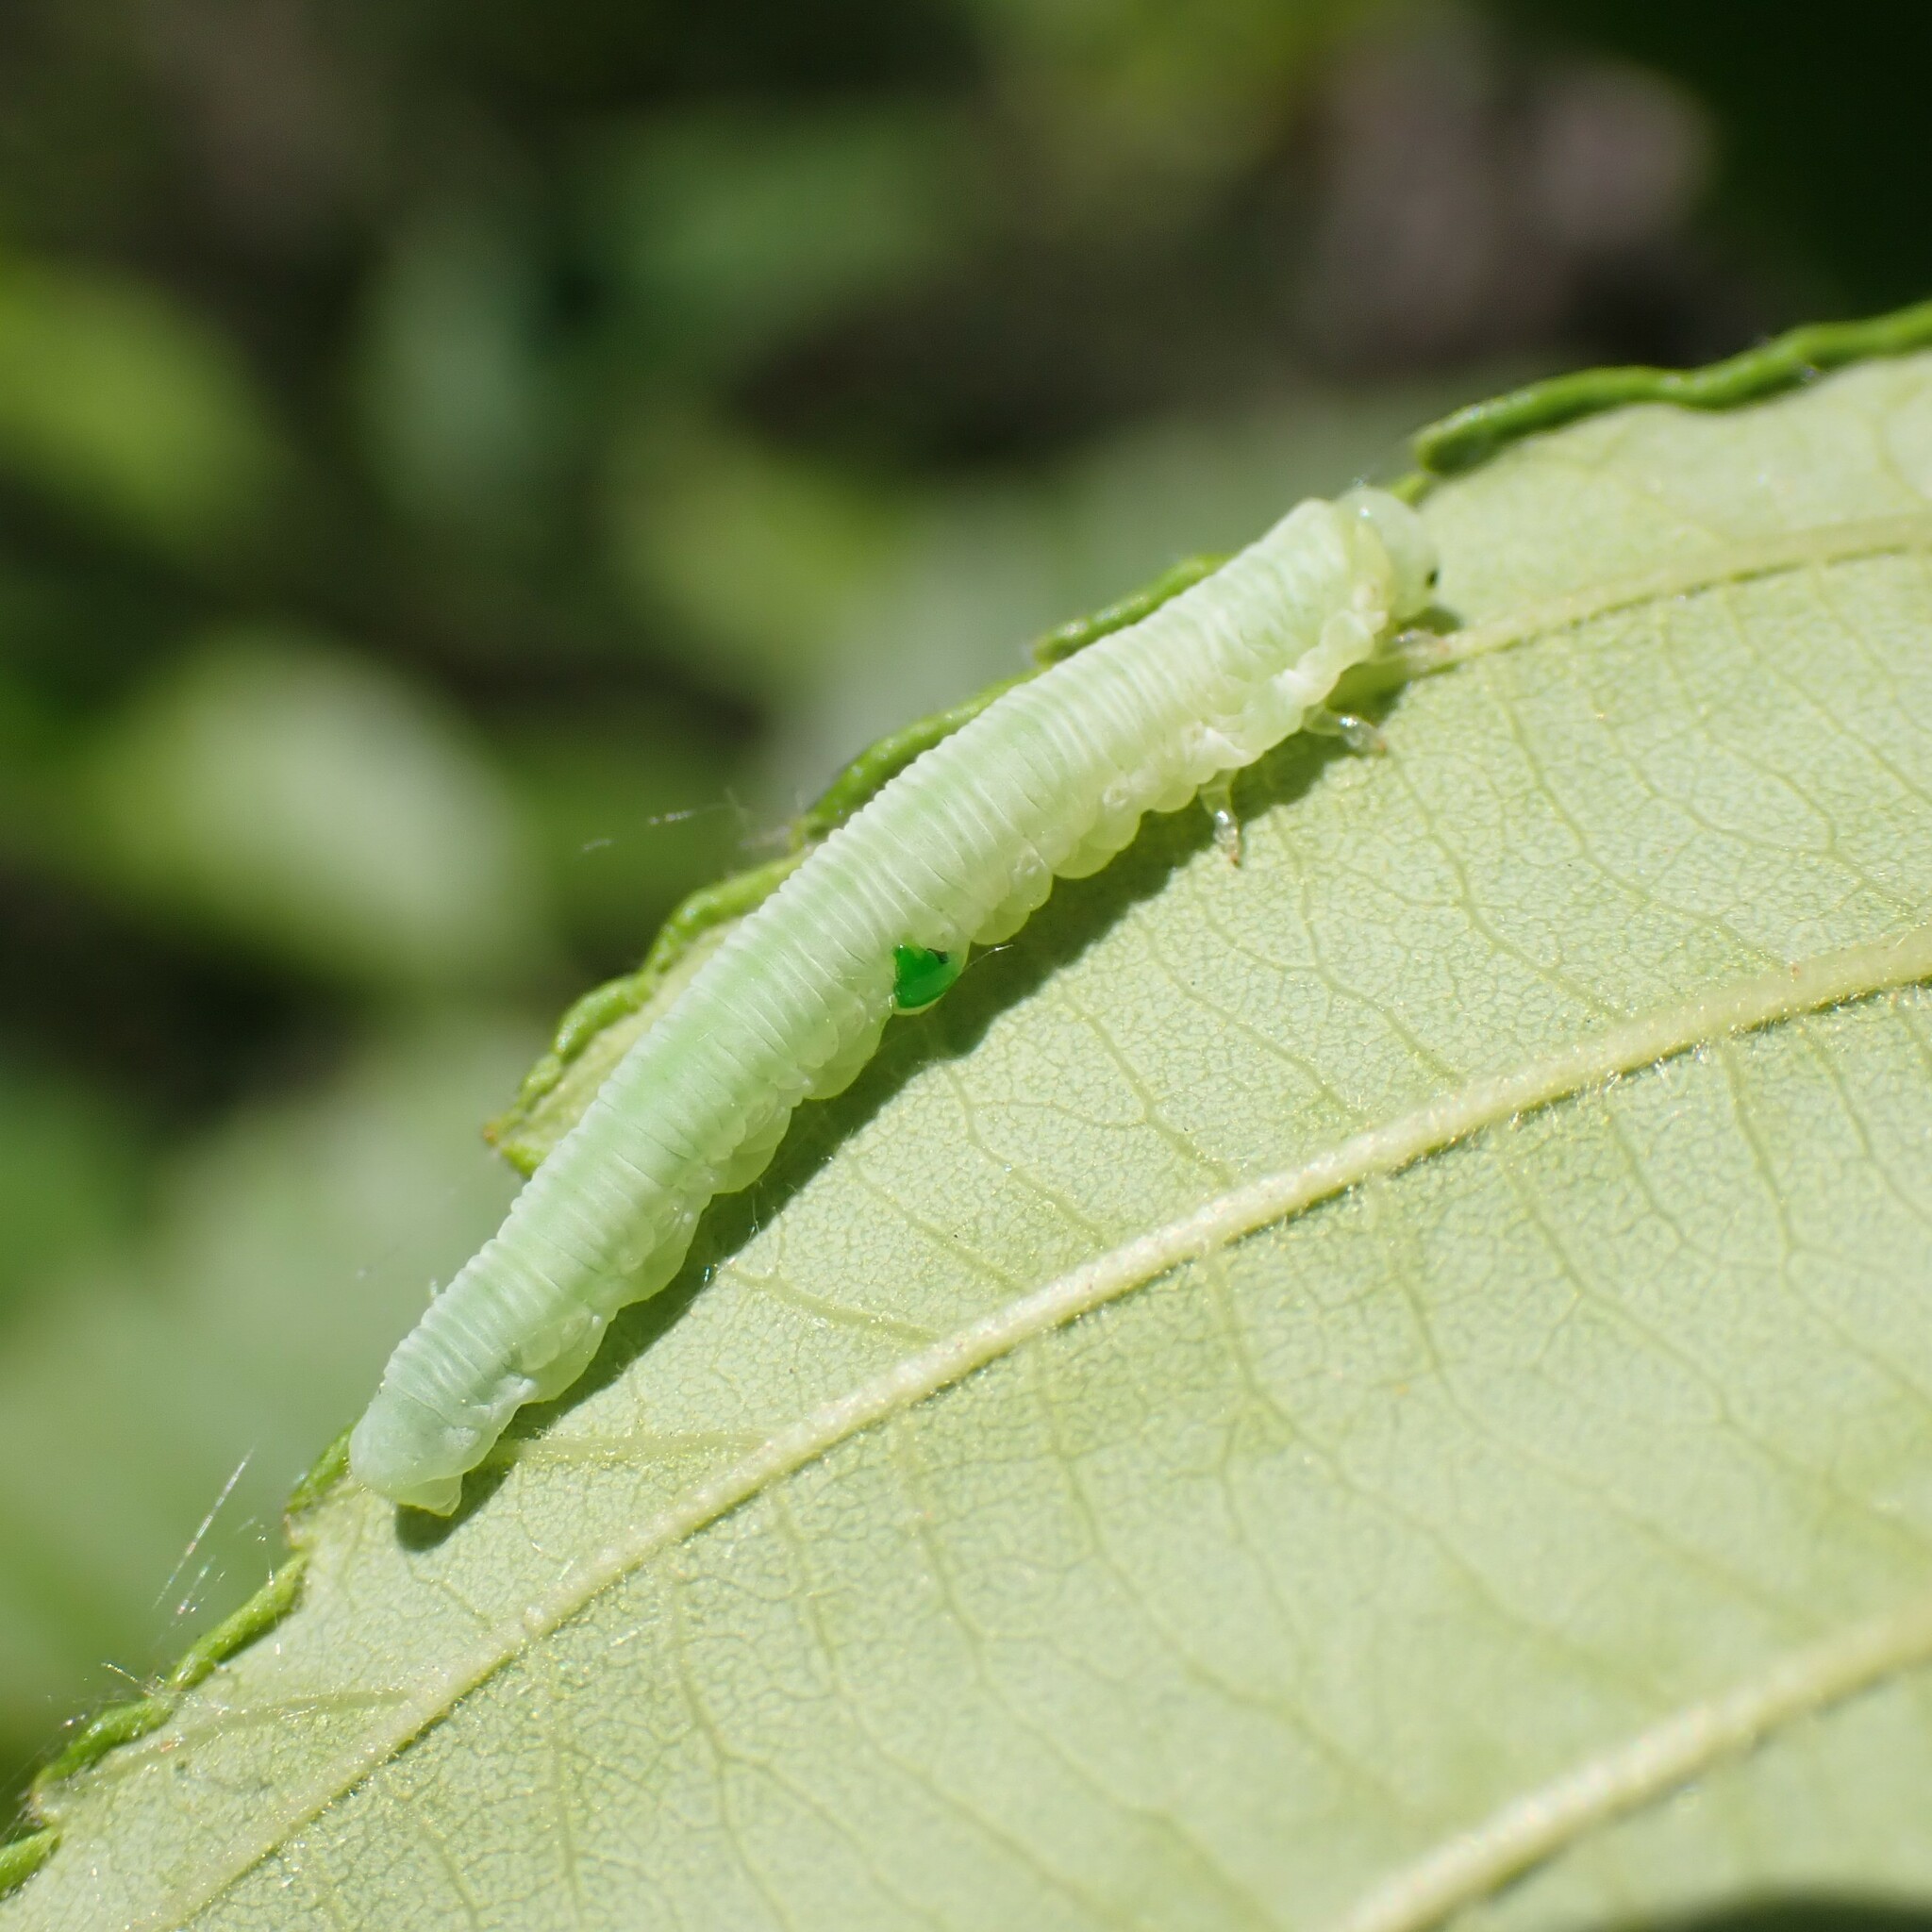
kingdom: Animalia
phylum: Arthropoda
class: Insecta
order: Hymenoptera
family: Tenthredinidae
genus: Monsoma
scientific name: Monsoma pulveratum
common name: Green alder sawfly
